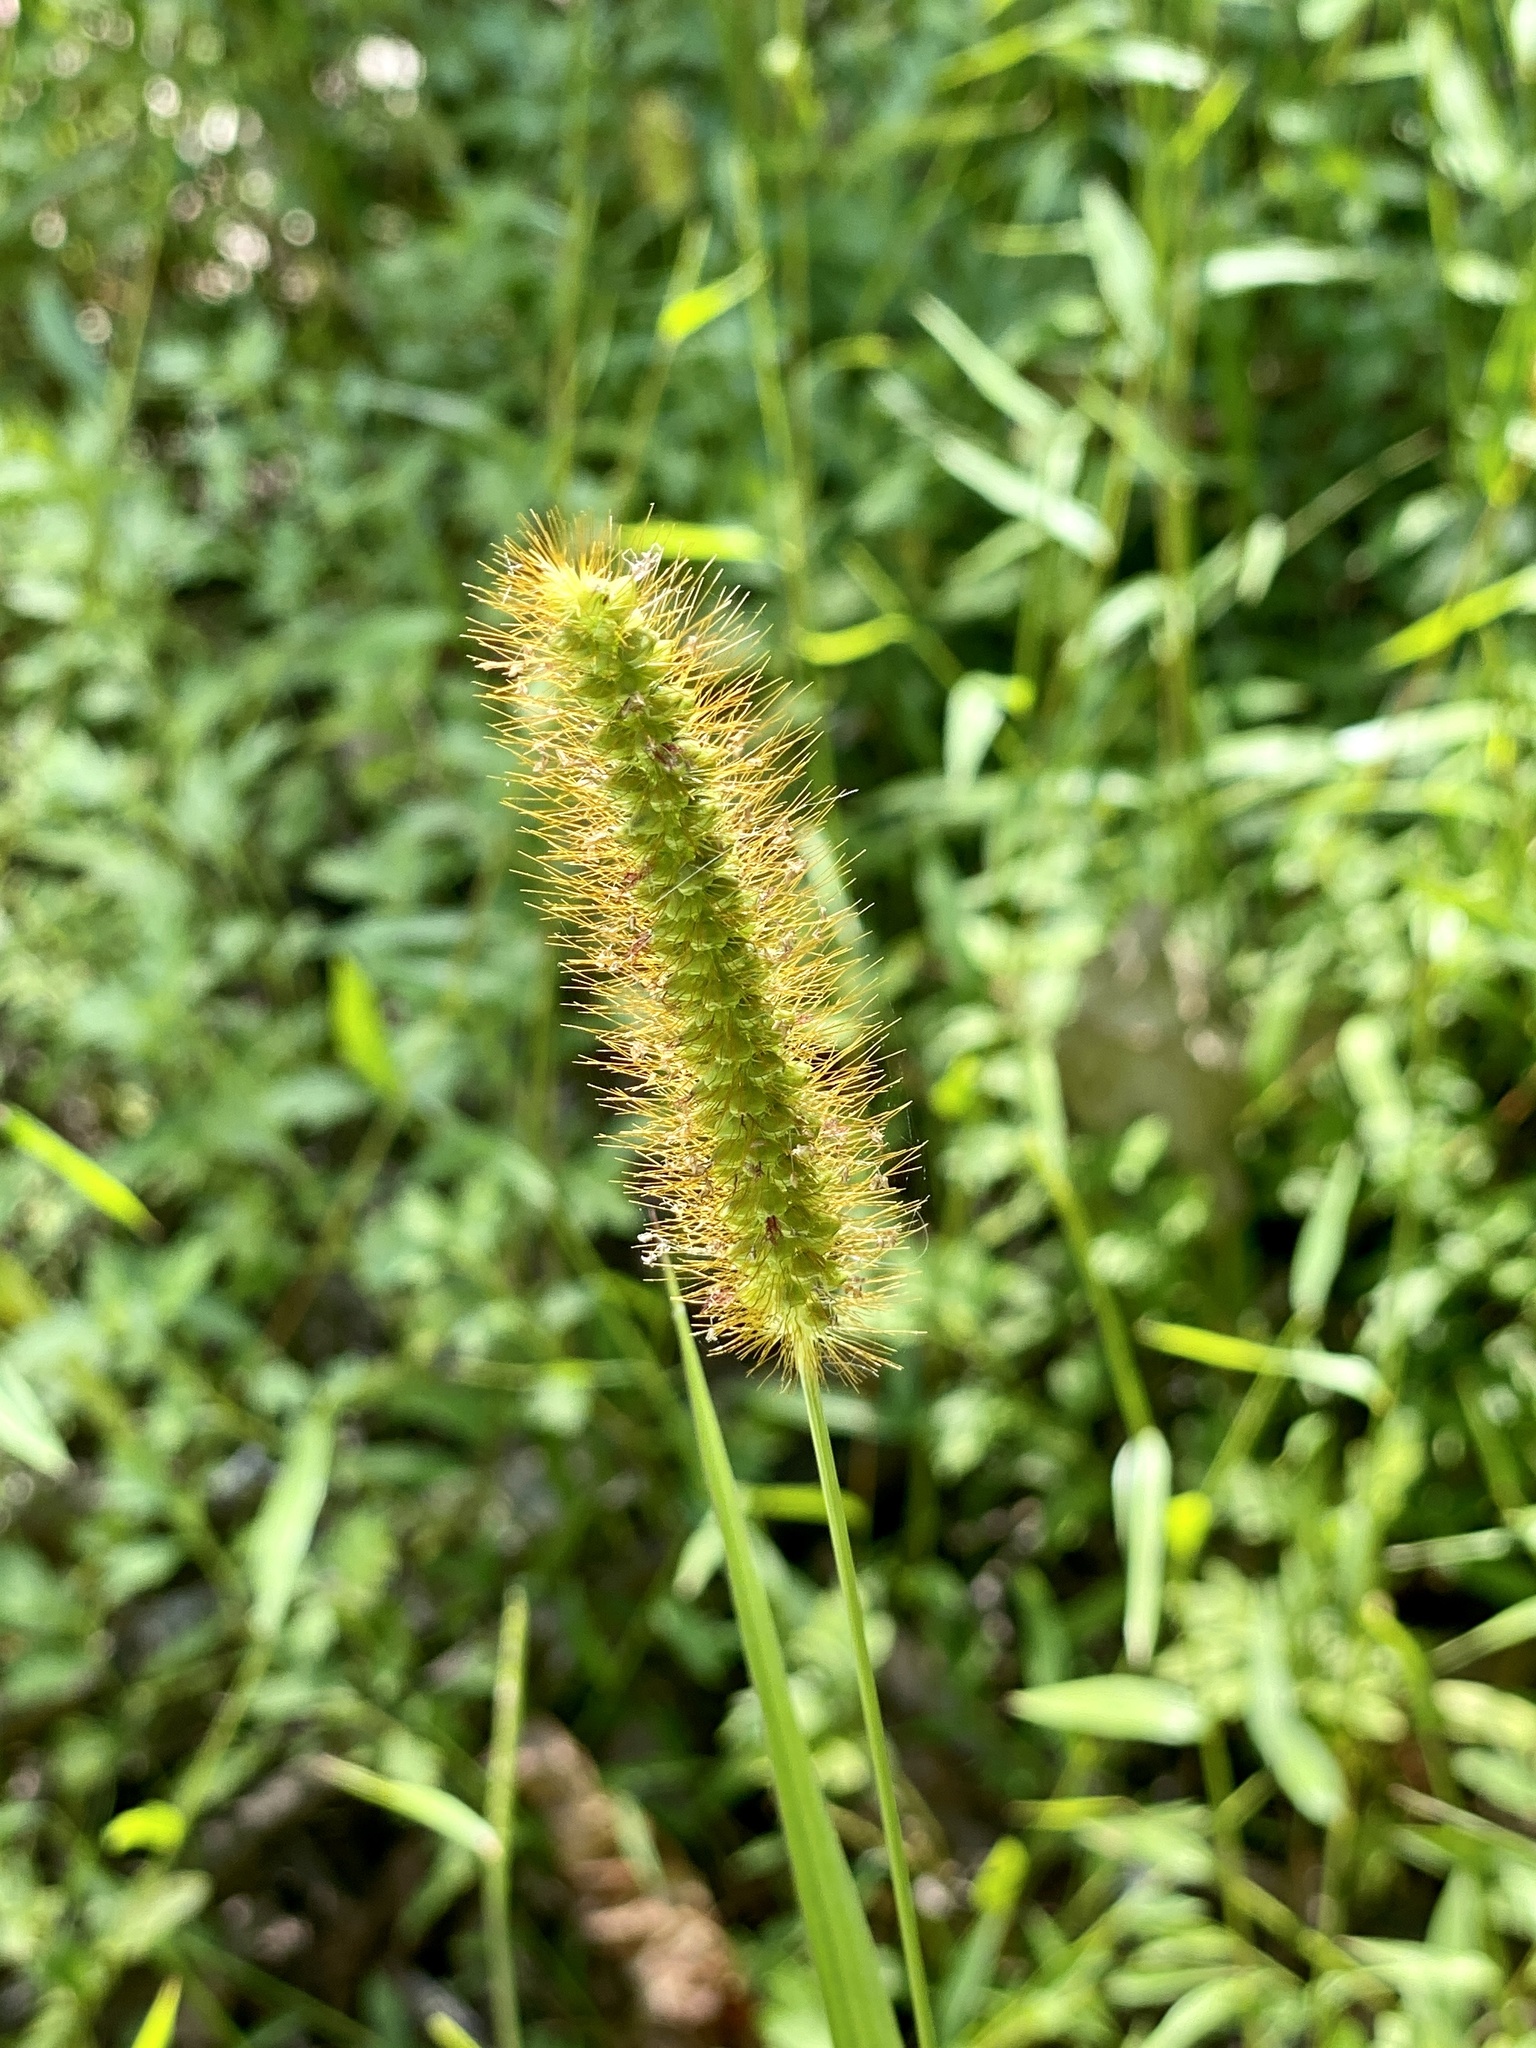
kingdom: Plantae
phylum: Tracheophyta
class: Liliopsida
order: Poales
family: Poaceae
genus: Setaria
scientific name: Setaria pumila
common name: Yellow bristle-grass
